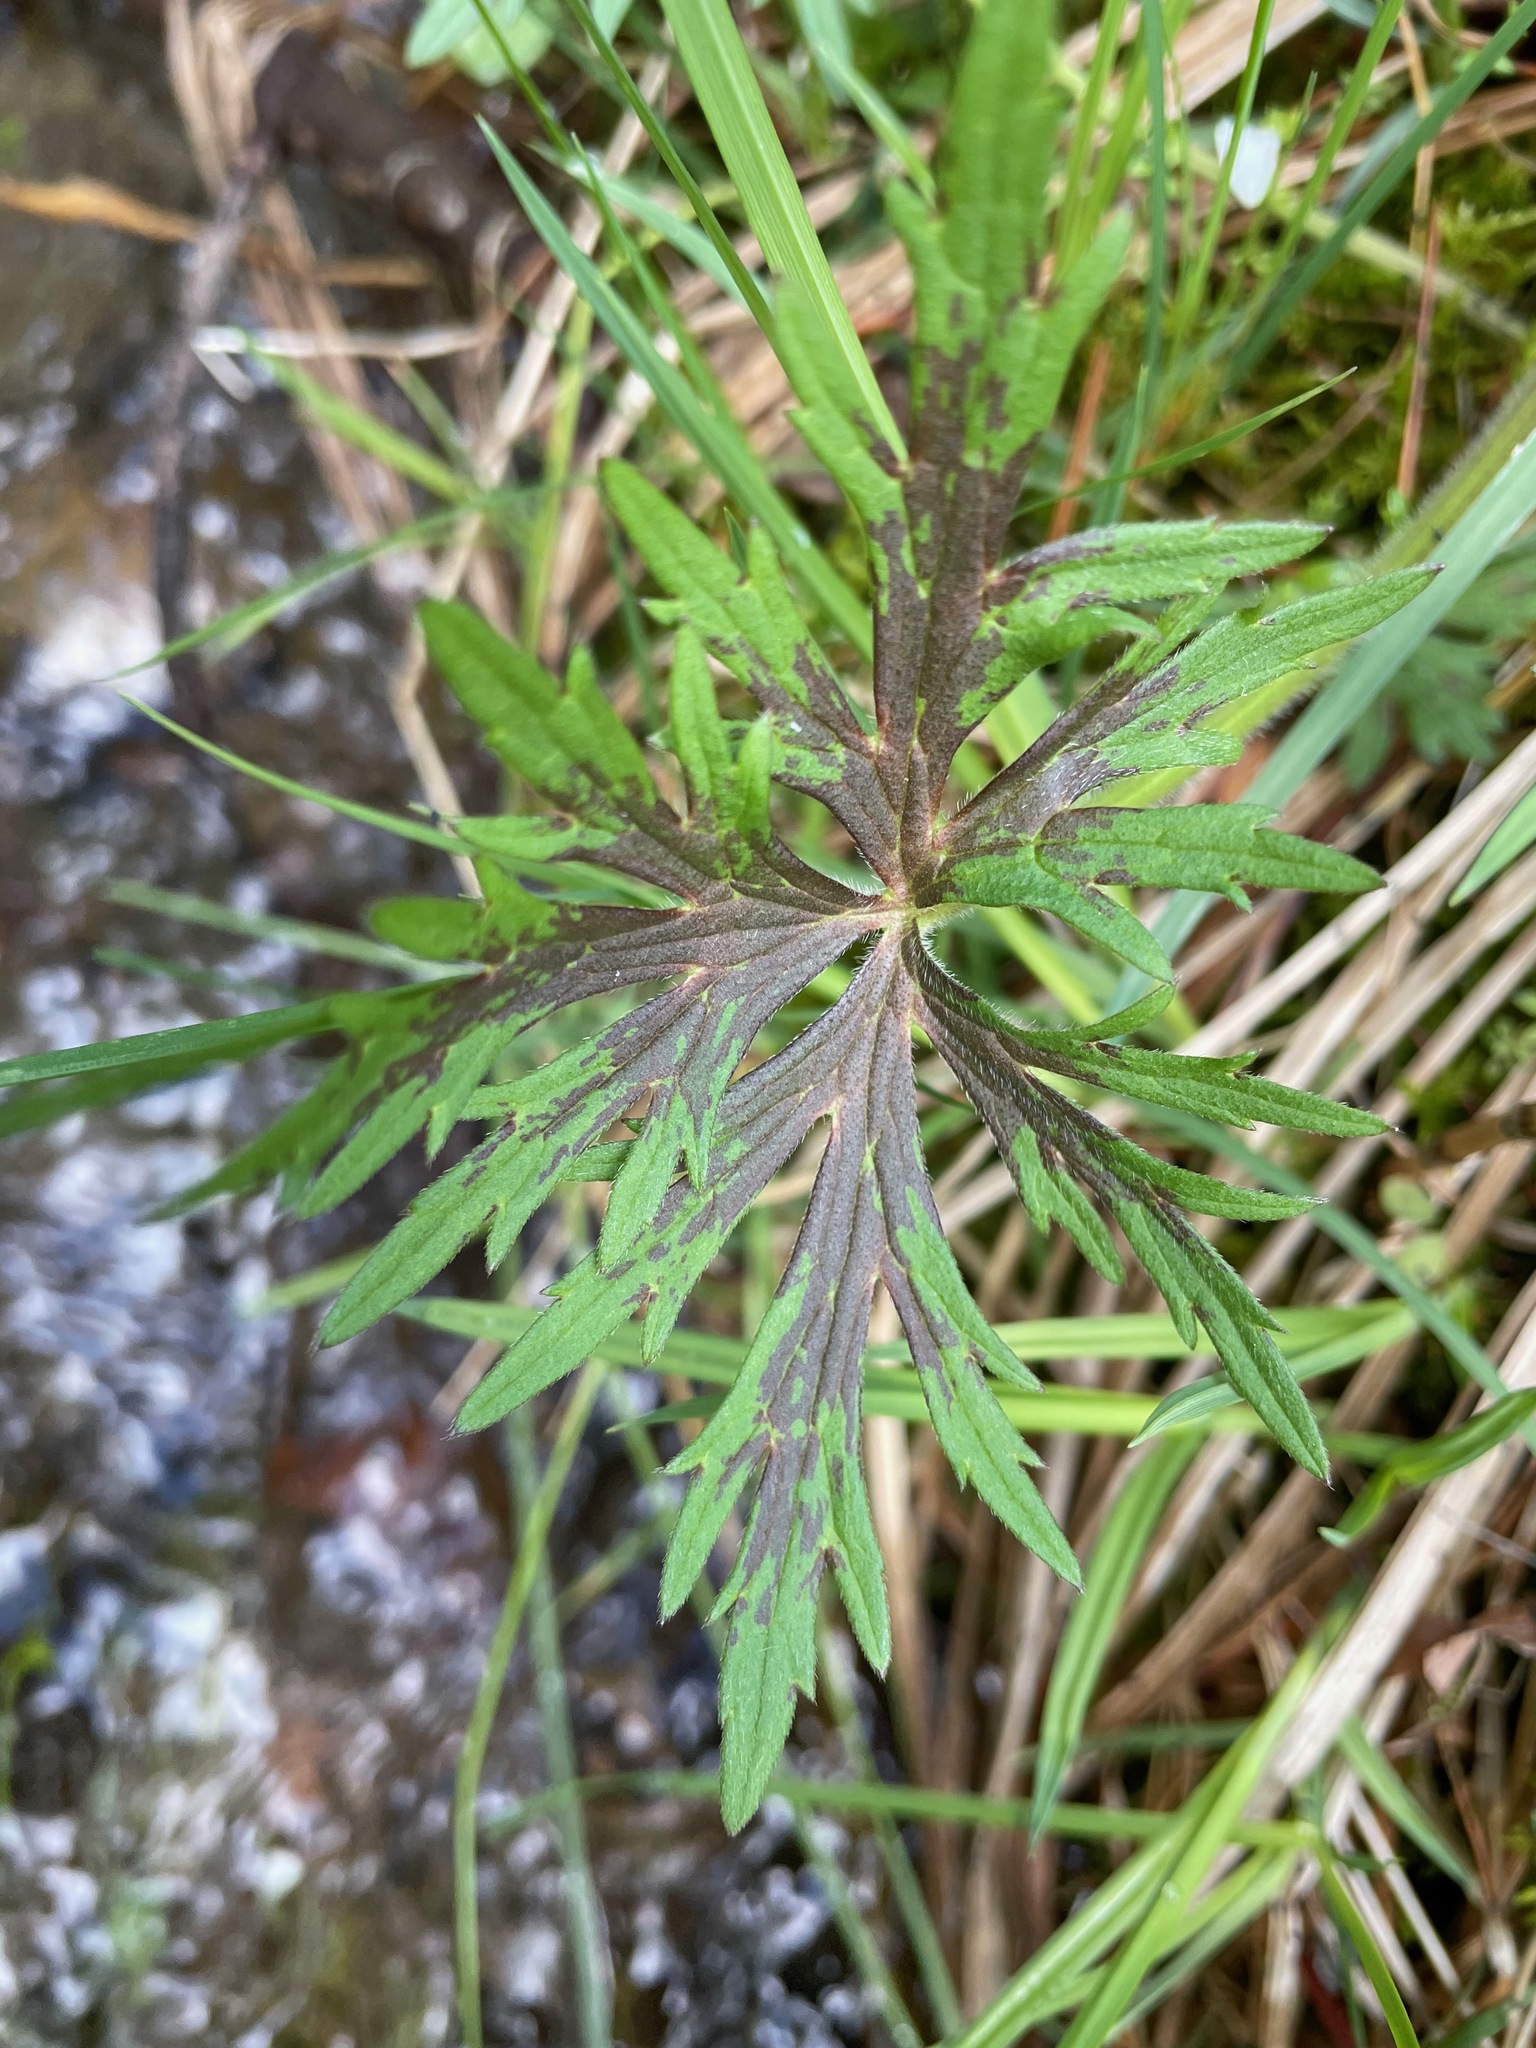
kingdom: Plantae
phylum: Tracheophyta
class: Magnoliopsida
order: Ranunculales
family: Ranunculaceae
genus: Ranunculus
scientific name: Ranunculus acris
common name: Meadow buttercup
